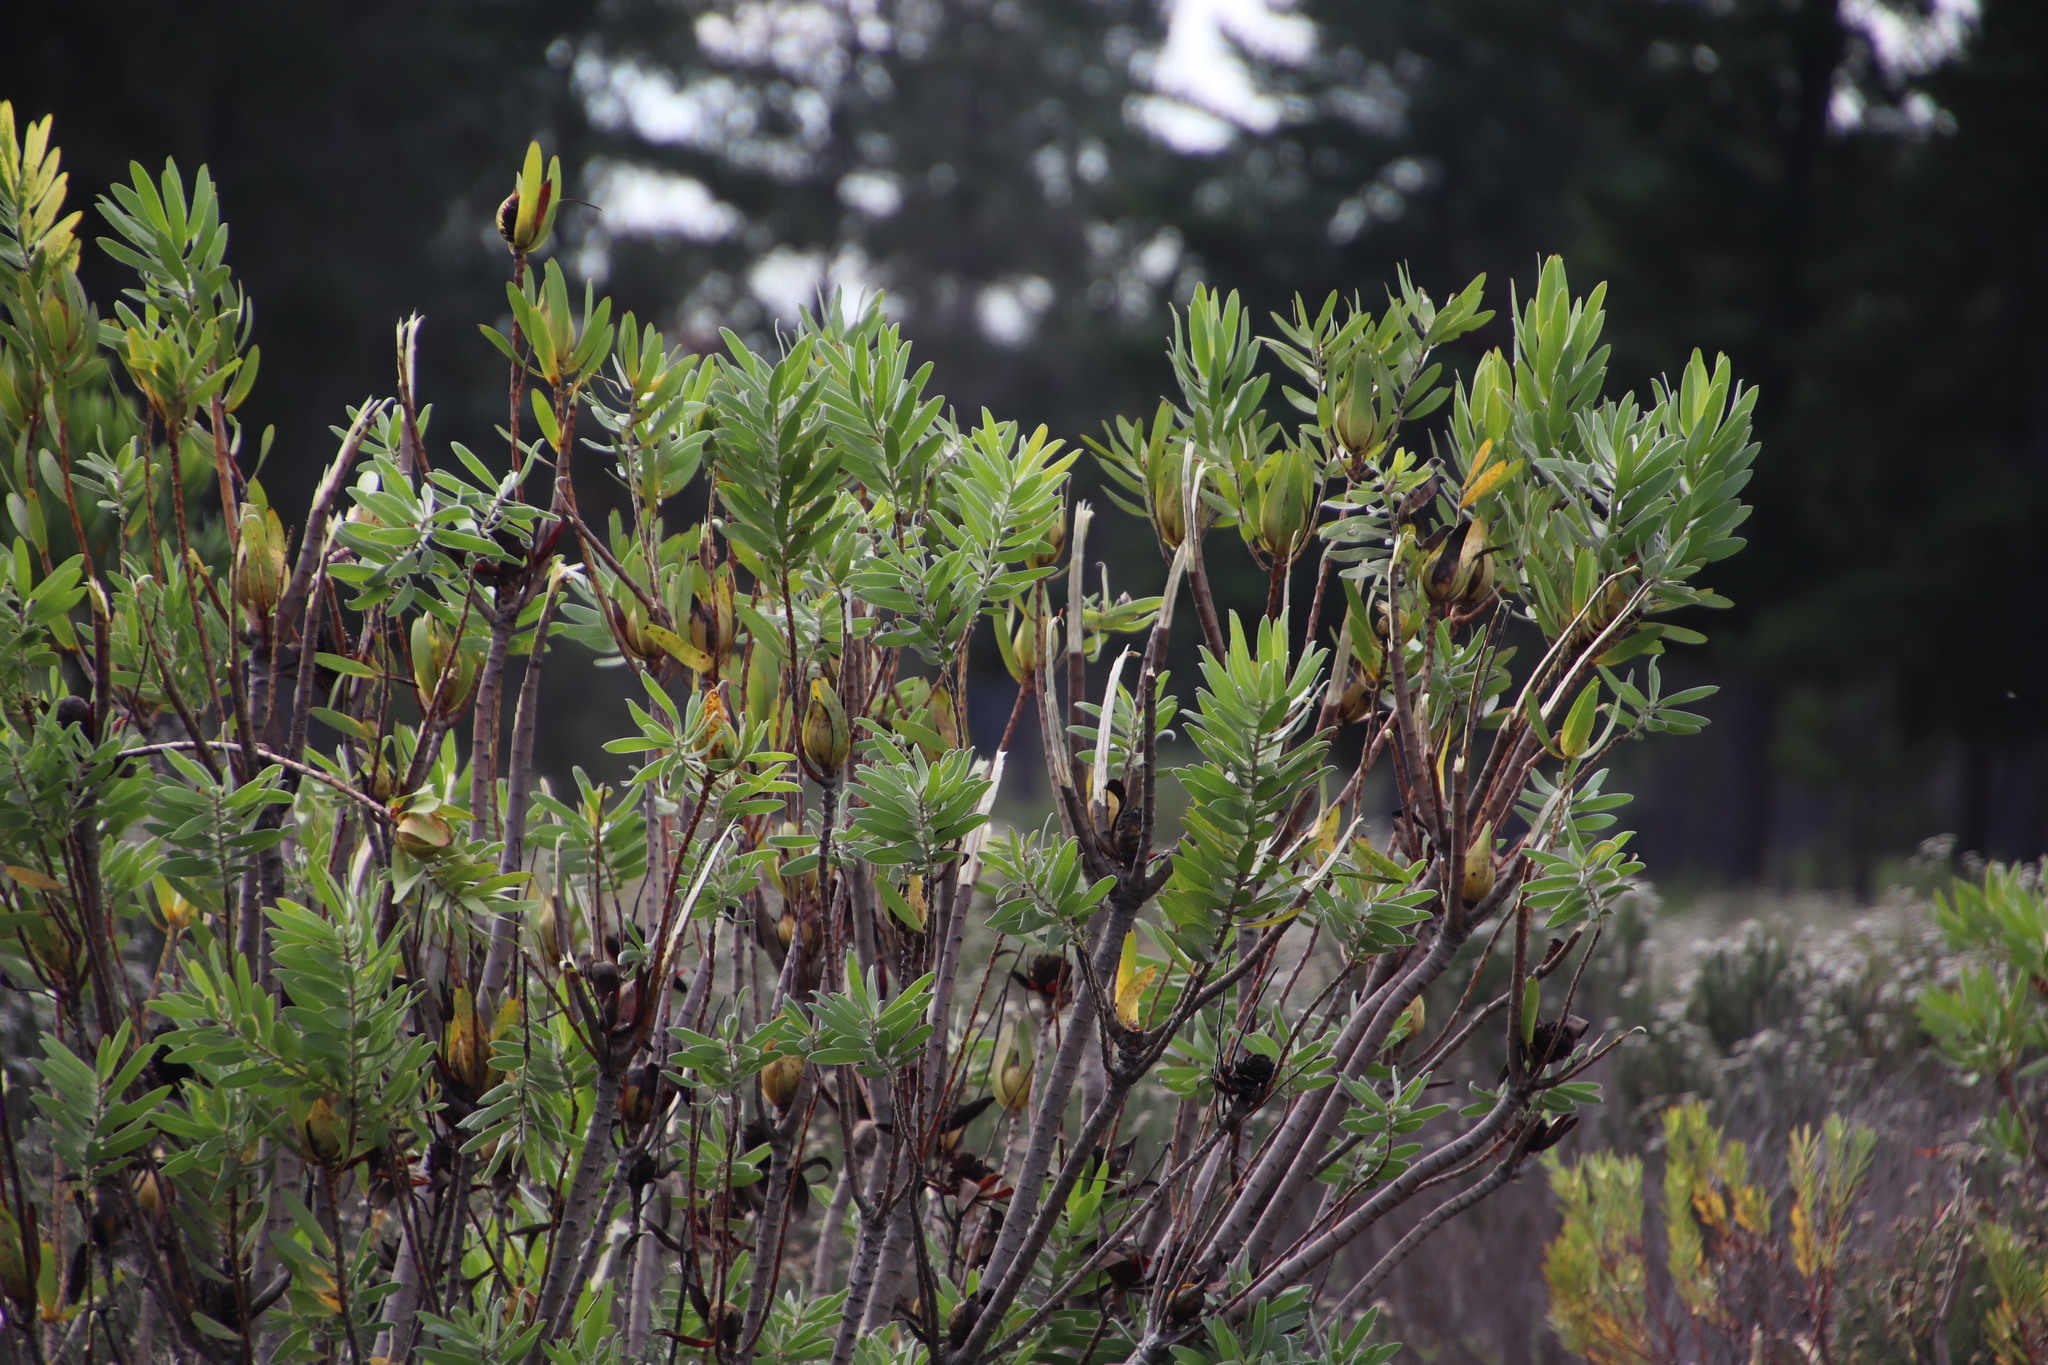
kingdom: Plantae
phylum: Tracheophyta
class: Magnoliopsida
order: Proteales
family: Proteaceae
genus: Leucadendron
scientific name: Leucadendron laureolum
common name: Golden sunshinebush
